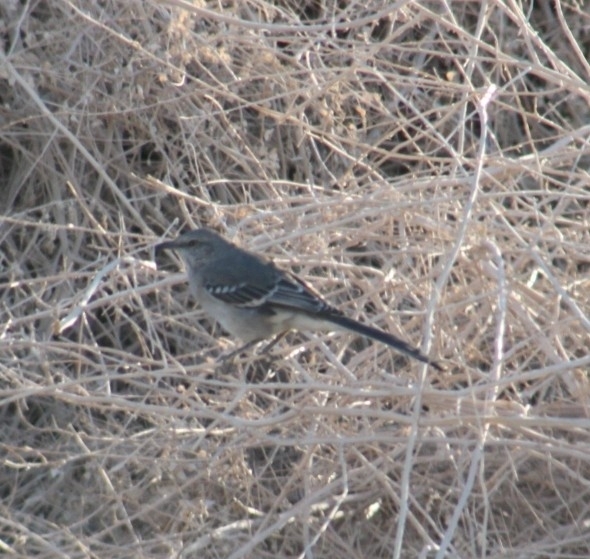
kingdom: Animalia
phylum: Chordata
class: Aves
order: Passeriformes
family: Mimidae
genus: Mimus
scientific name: Mimus polyglottos
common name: Northern mockingbird
